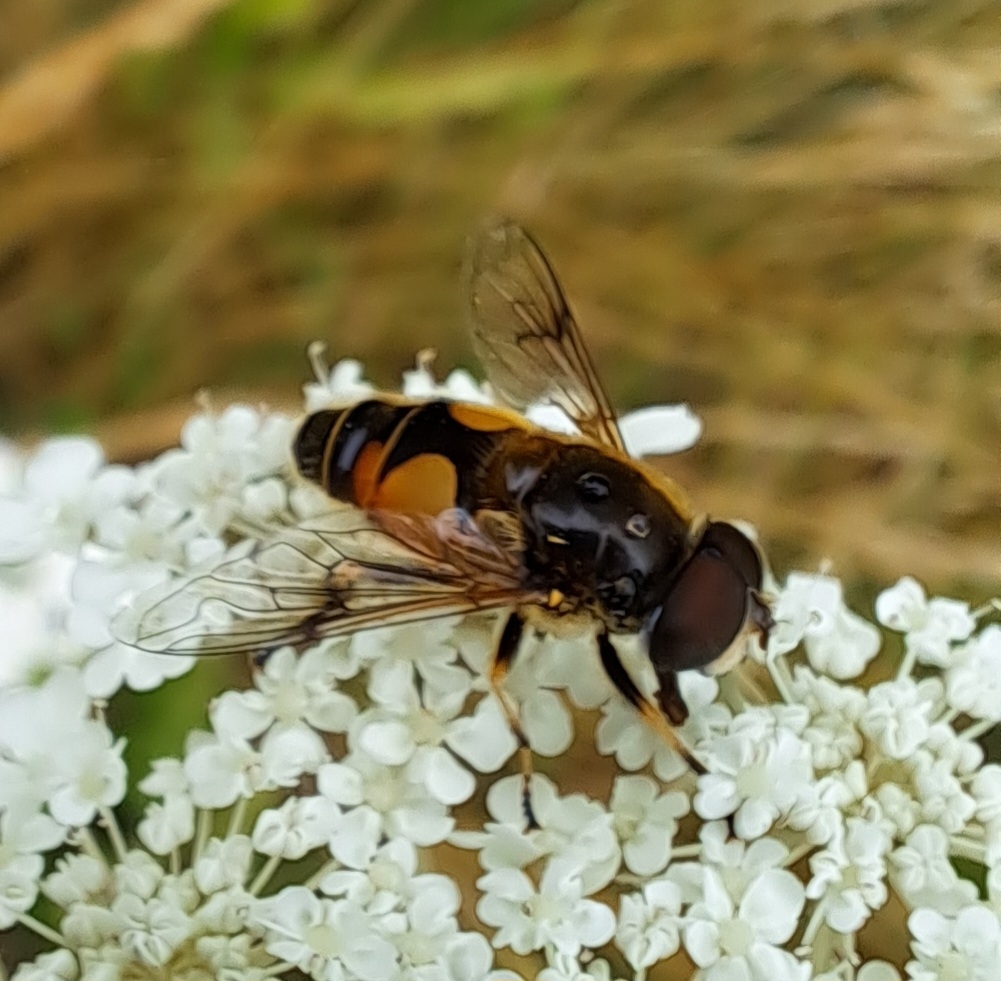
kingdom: Animalia
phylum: Arthropoda
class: Insecta
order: Diptera
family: Syrphidae
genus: Cheilosia
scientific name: Cheilosia morio
